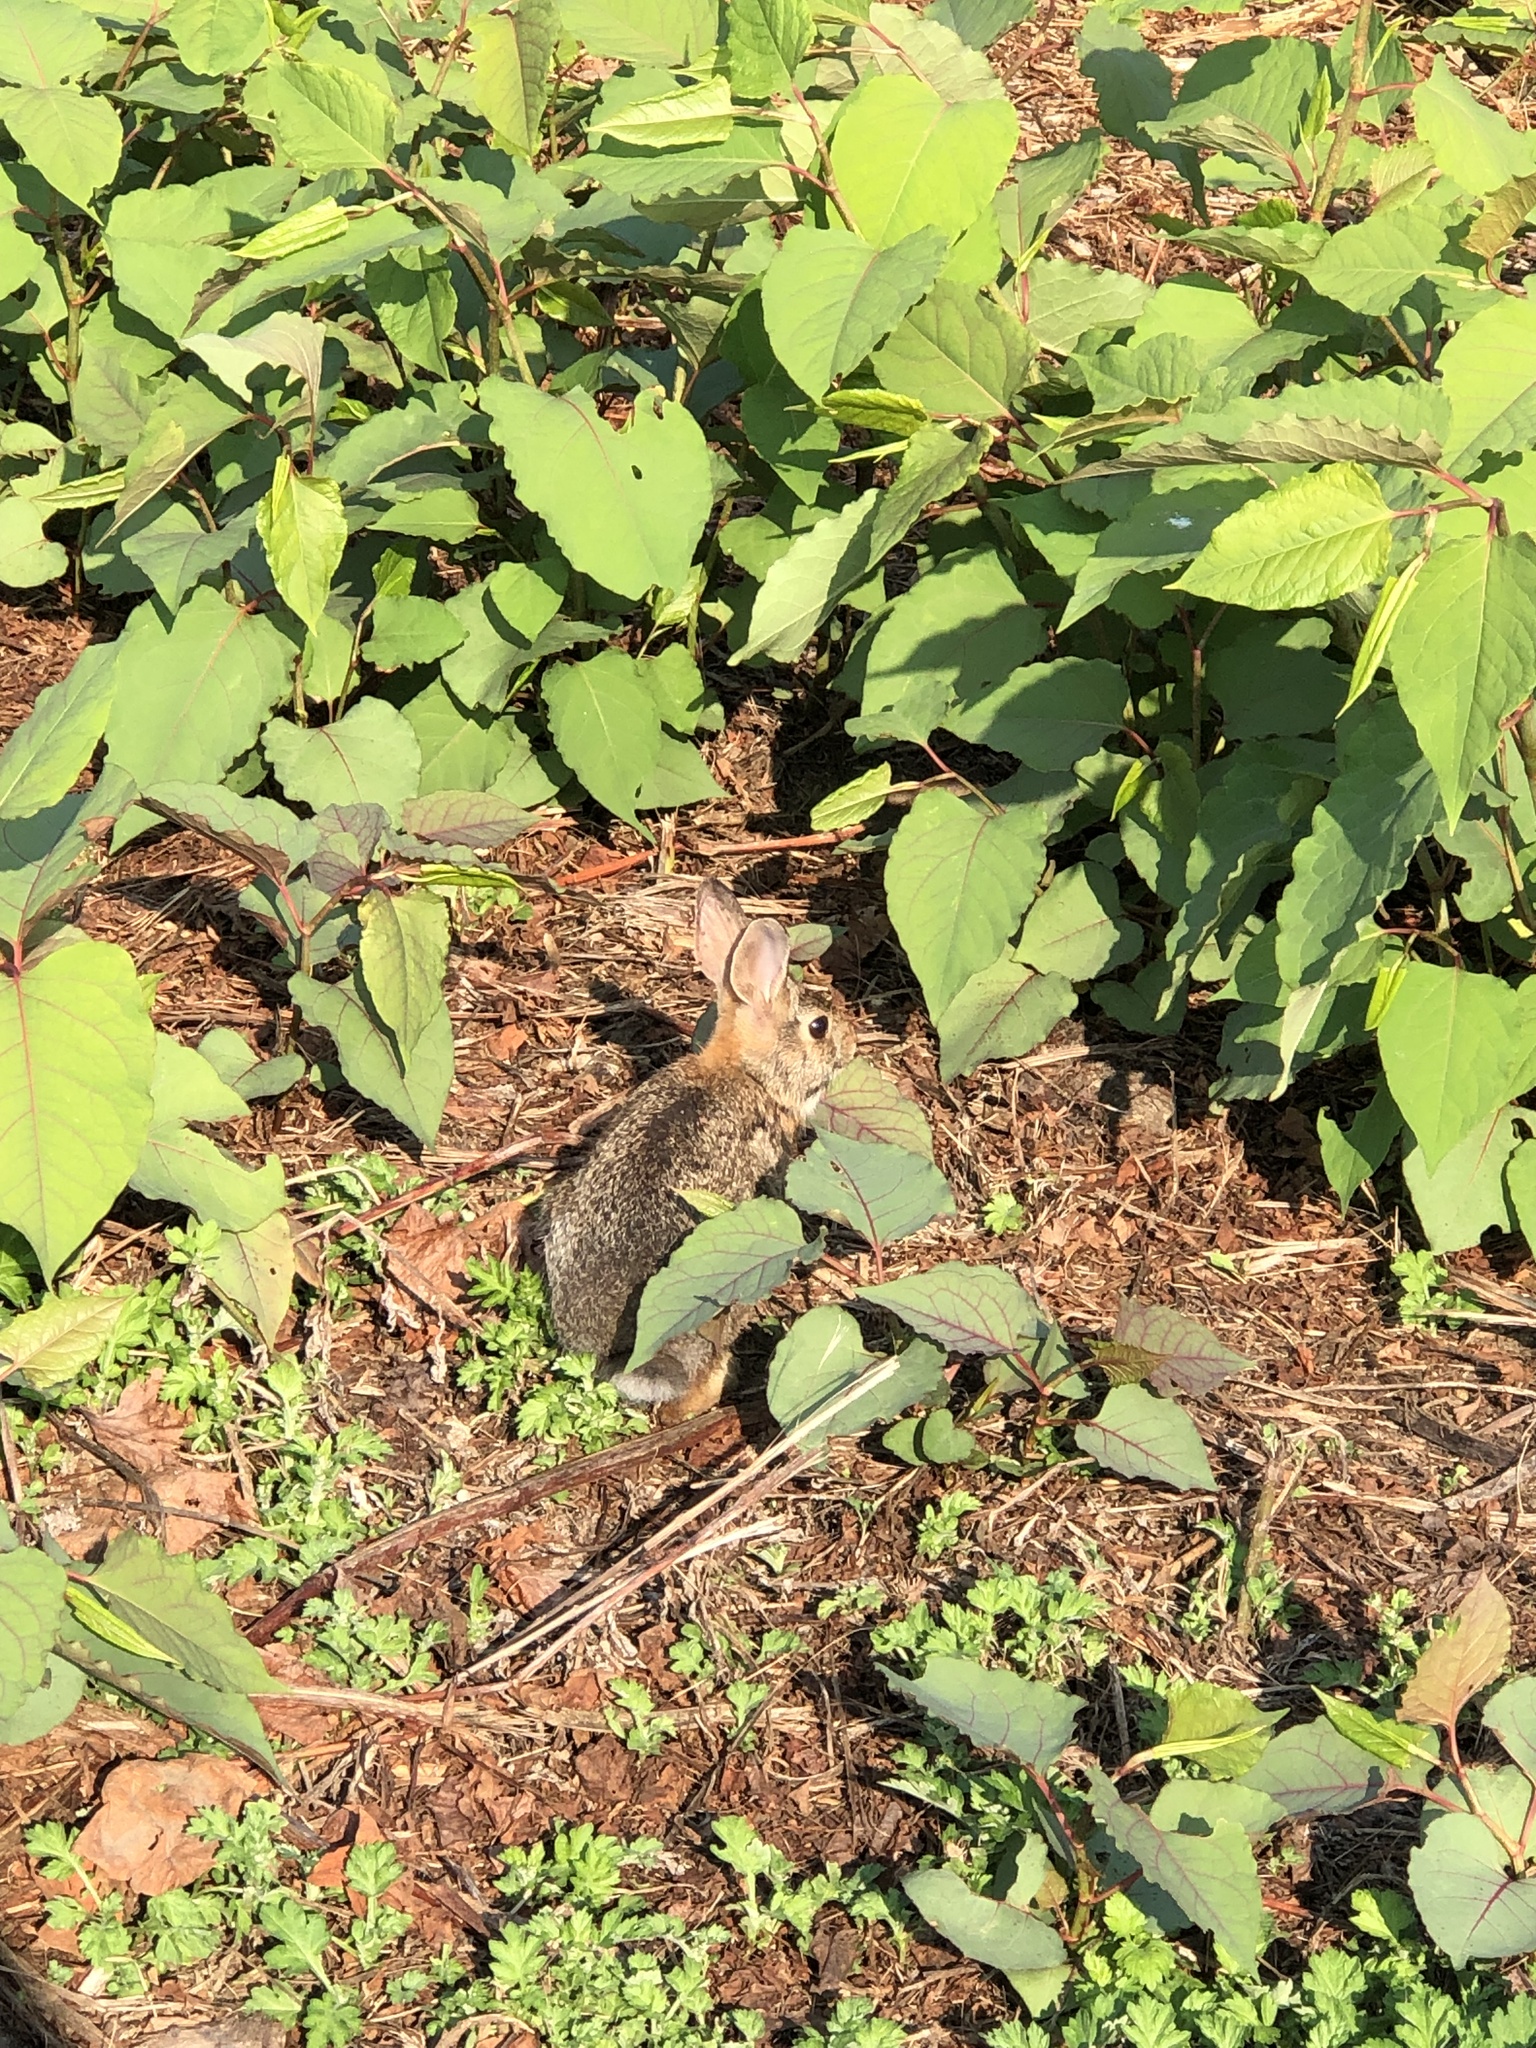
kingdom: Animalia
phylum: Chordata
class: Mammalia
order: Lagomorpha
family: Leporidae
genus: Sylvilagus
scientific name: Sylvilagus floridanus
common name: Eastern cottontail
